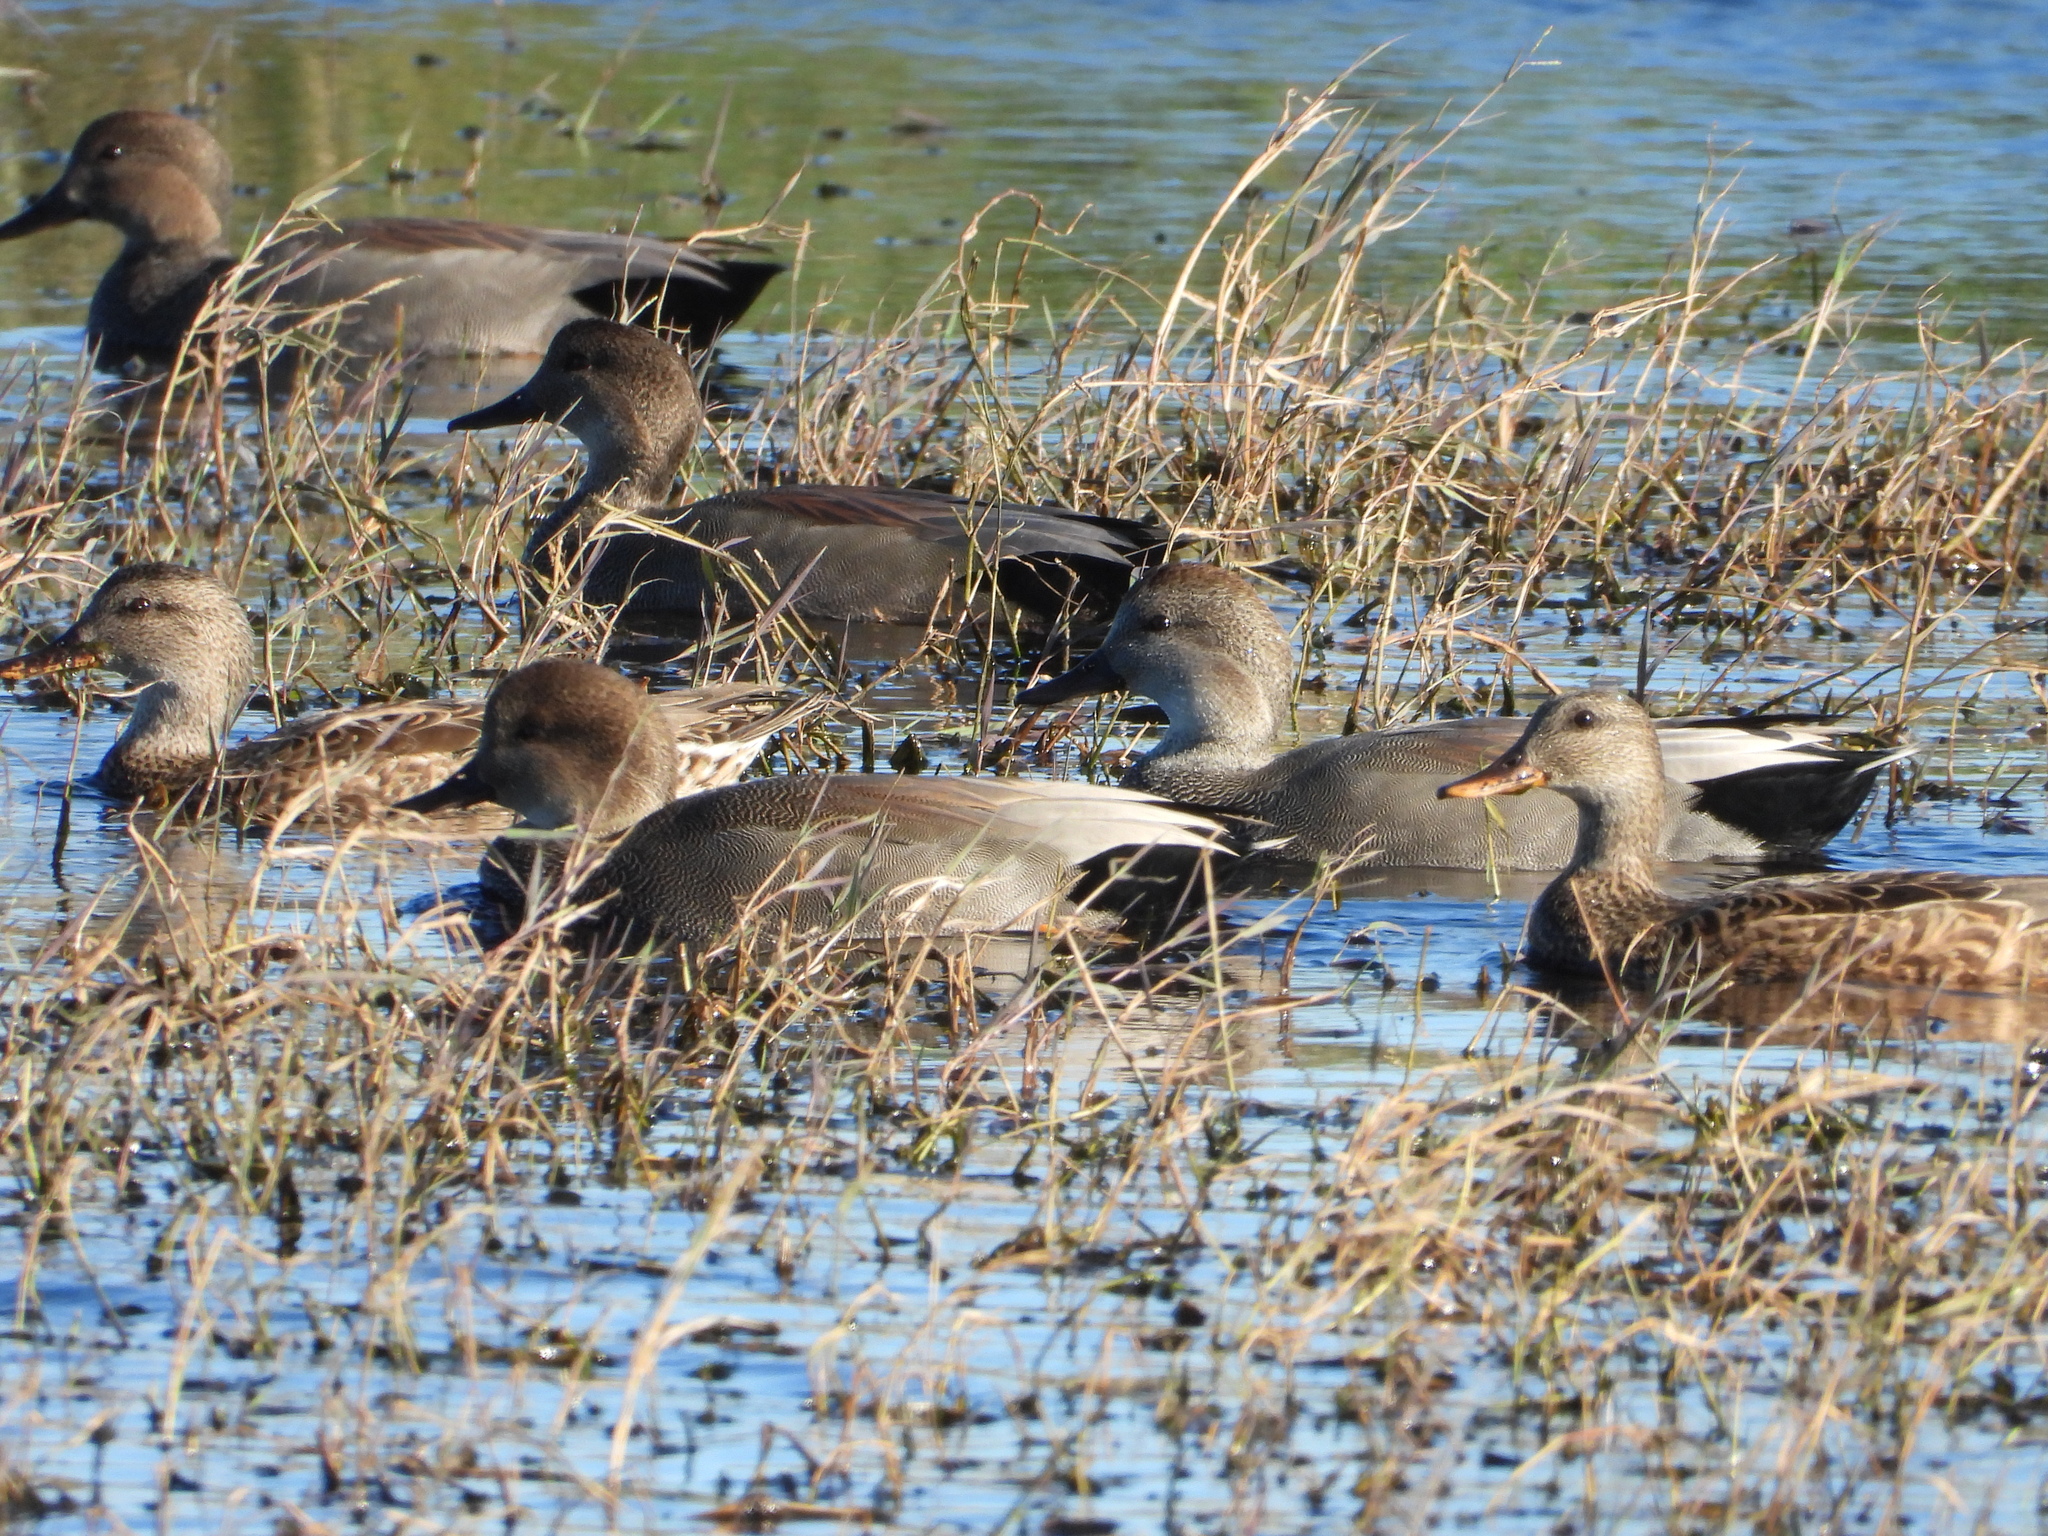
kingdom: Animalia
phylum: Chordata
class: Aves
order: Anseriformes
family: Anatidae
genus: Mareca
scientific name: Mareca strepera
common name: Gadwall
